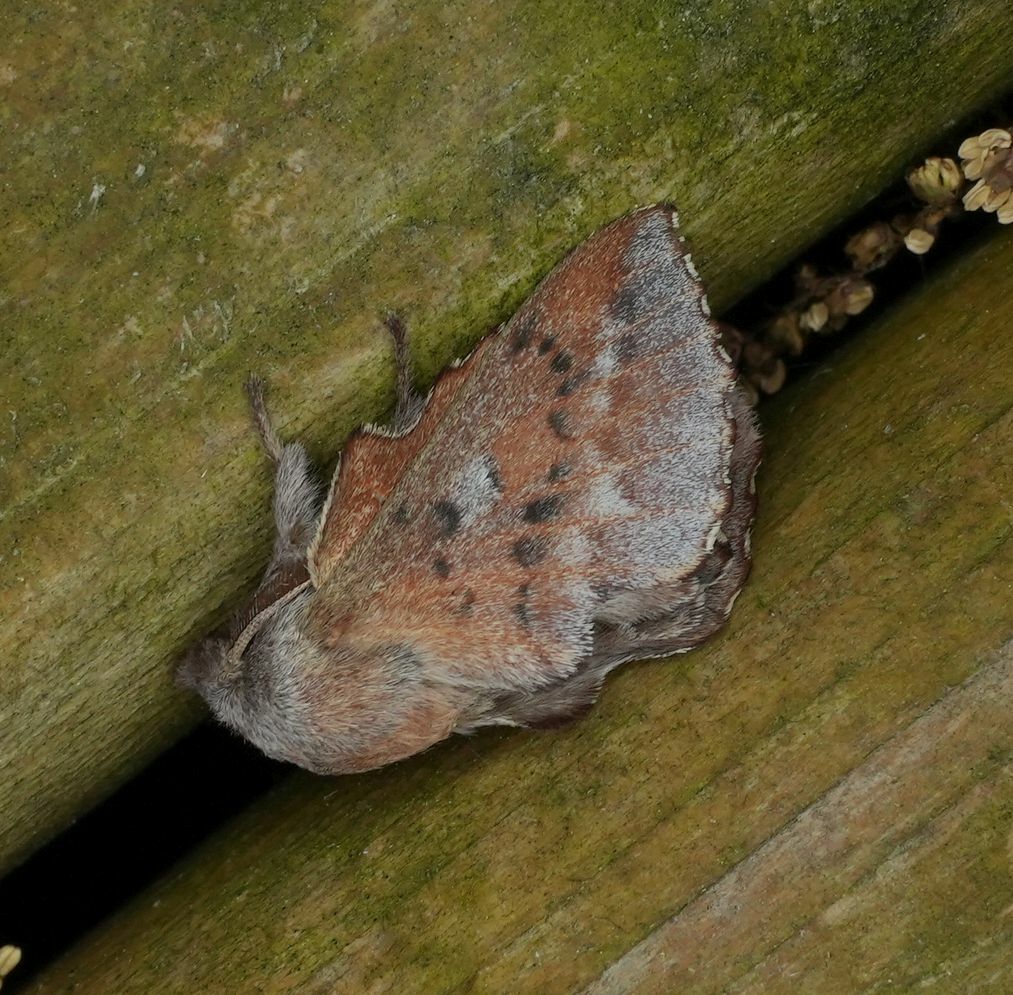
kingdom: Animalia
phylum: Arthropoda
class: Insecta
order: Lepidoptera
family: Lasiocampidae
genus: Phyllodesma
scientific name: Phyllodesma americana
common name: American lappet moth
